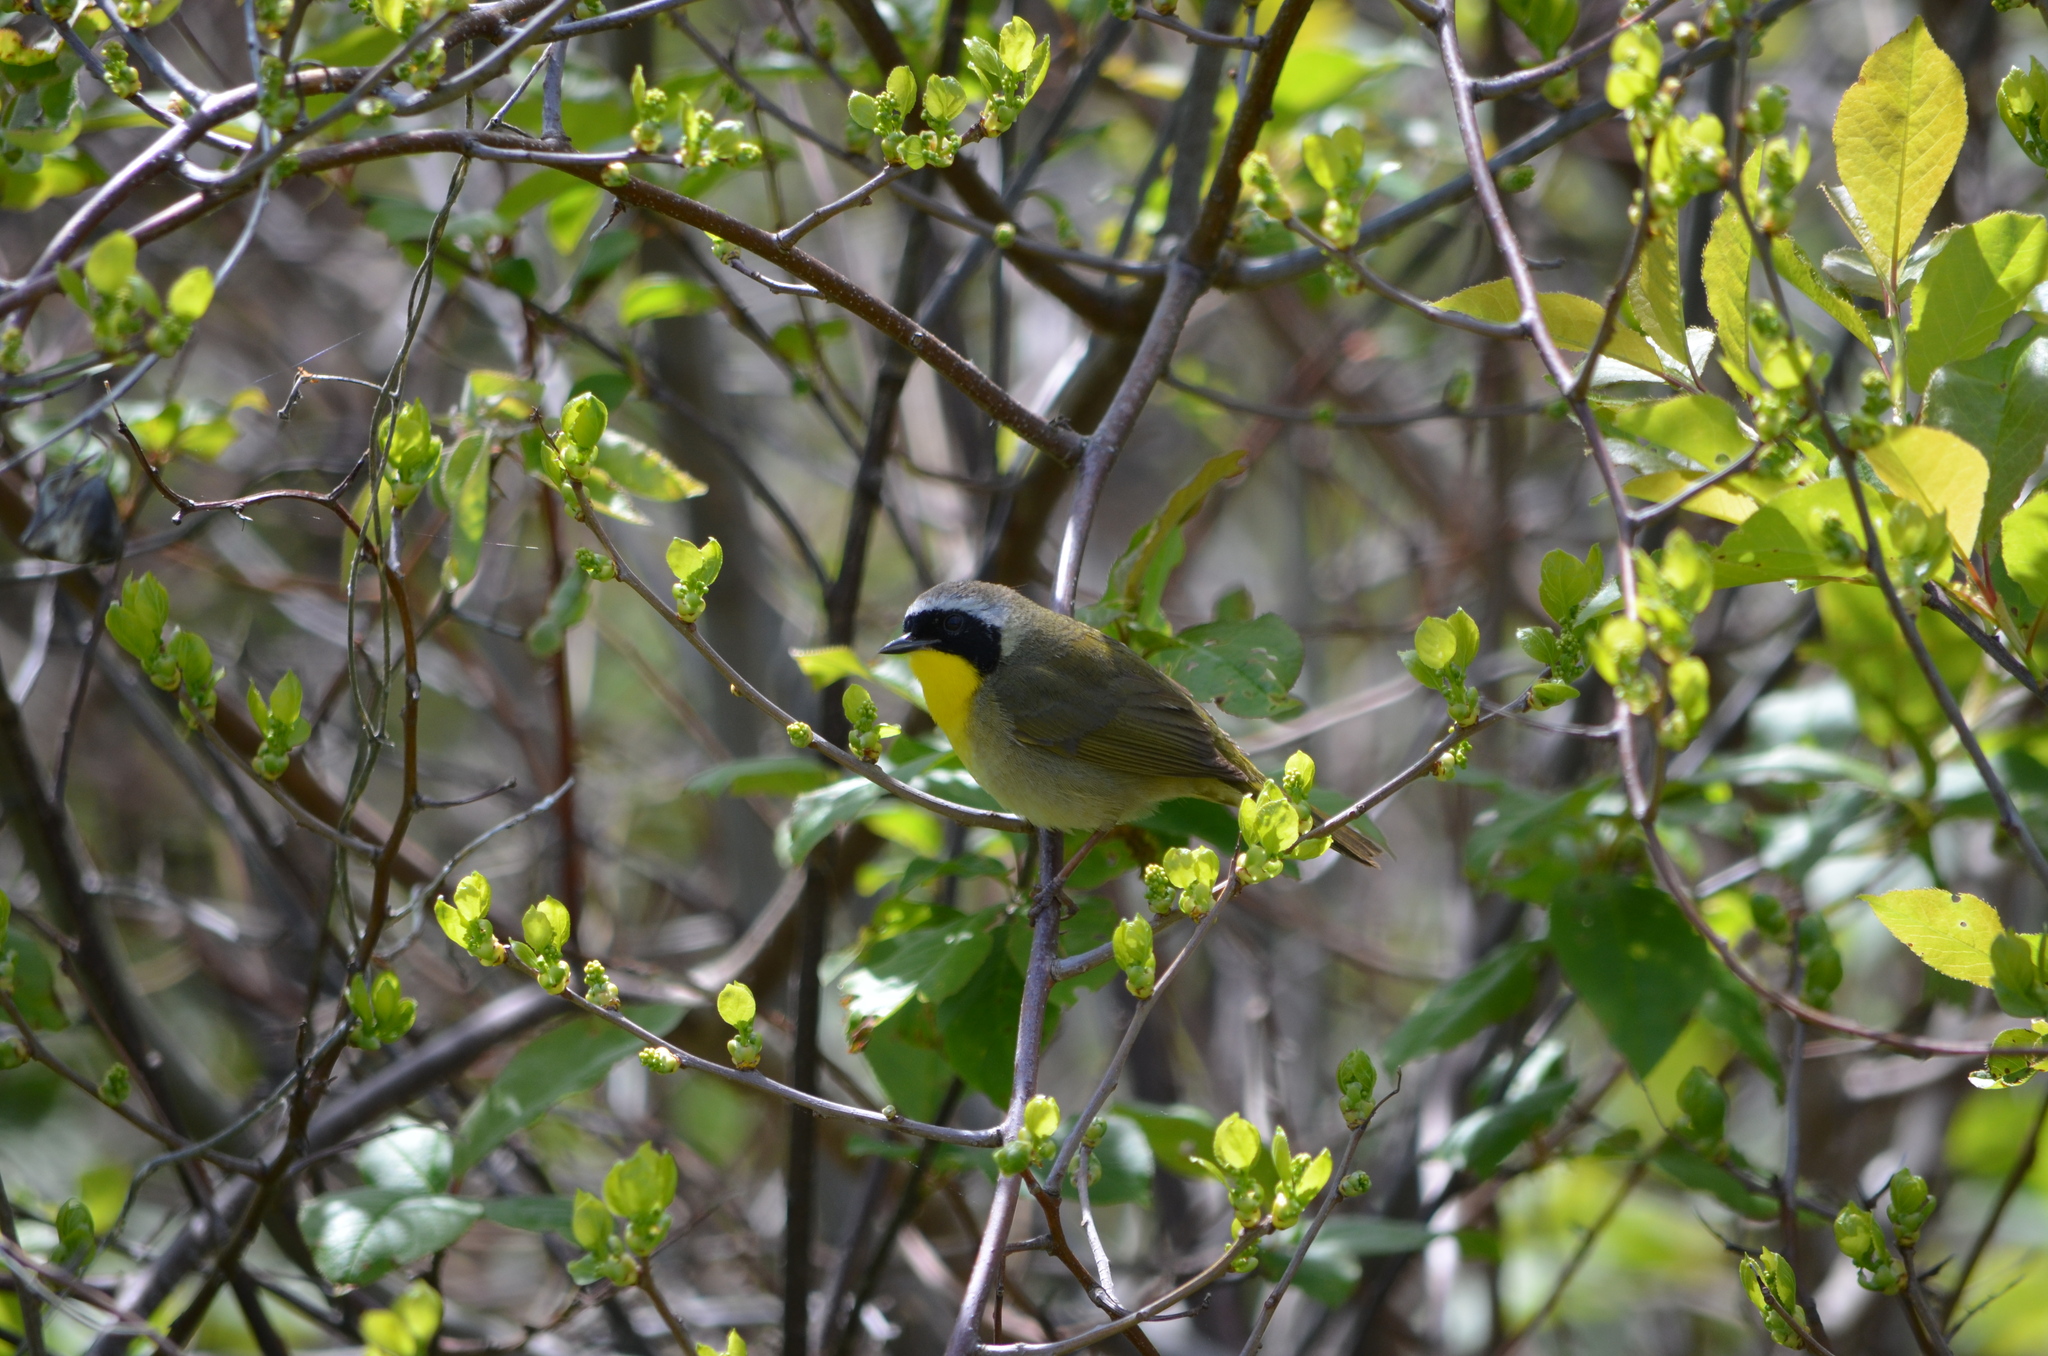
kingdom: Animalia
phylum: Chordata
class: Aves
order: Passeriformes
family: Parulidae
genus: Geothlypis
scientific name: Geothlypis trichas
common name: Common yellowthroat
